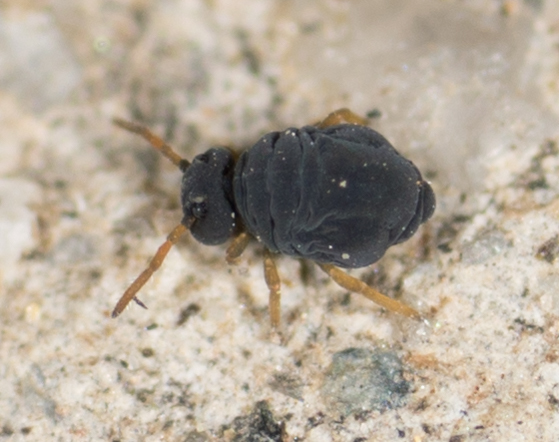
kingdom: Animalia
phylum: Arthropoda
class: Collembola
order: Symphypleona
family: Katiannidae
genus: Sminthurinus
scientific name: Sminthurinus atrapallidus
